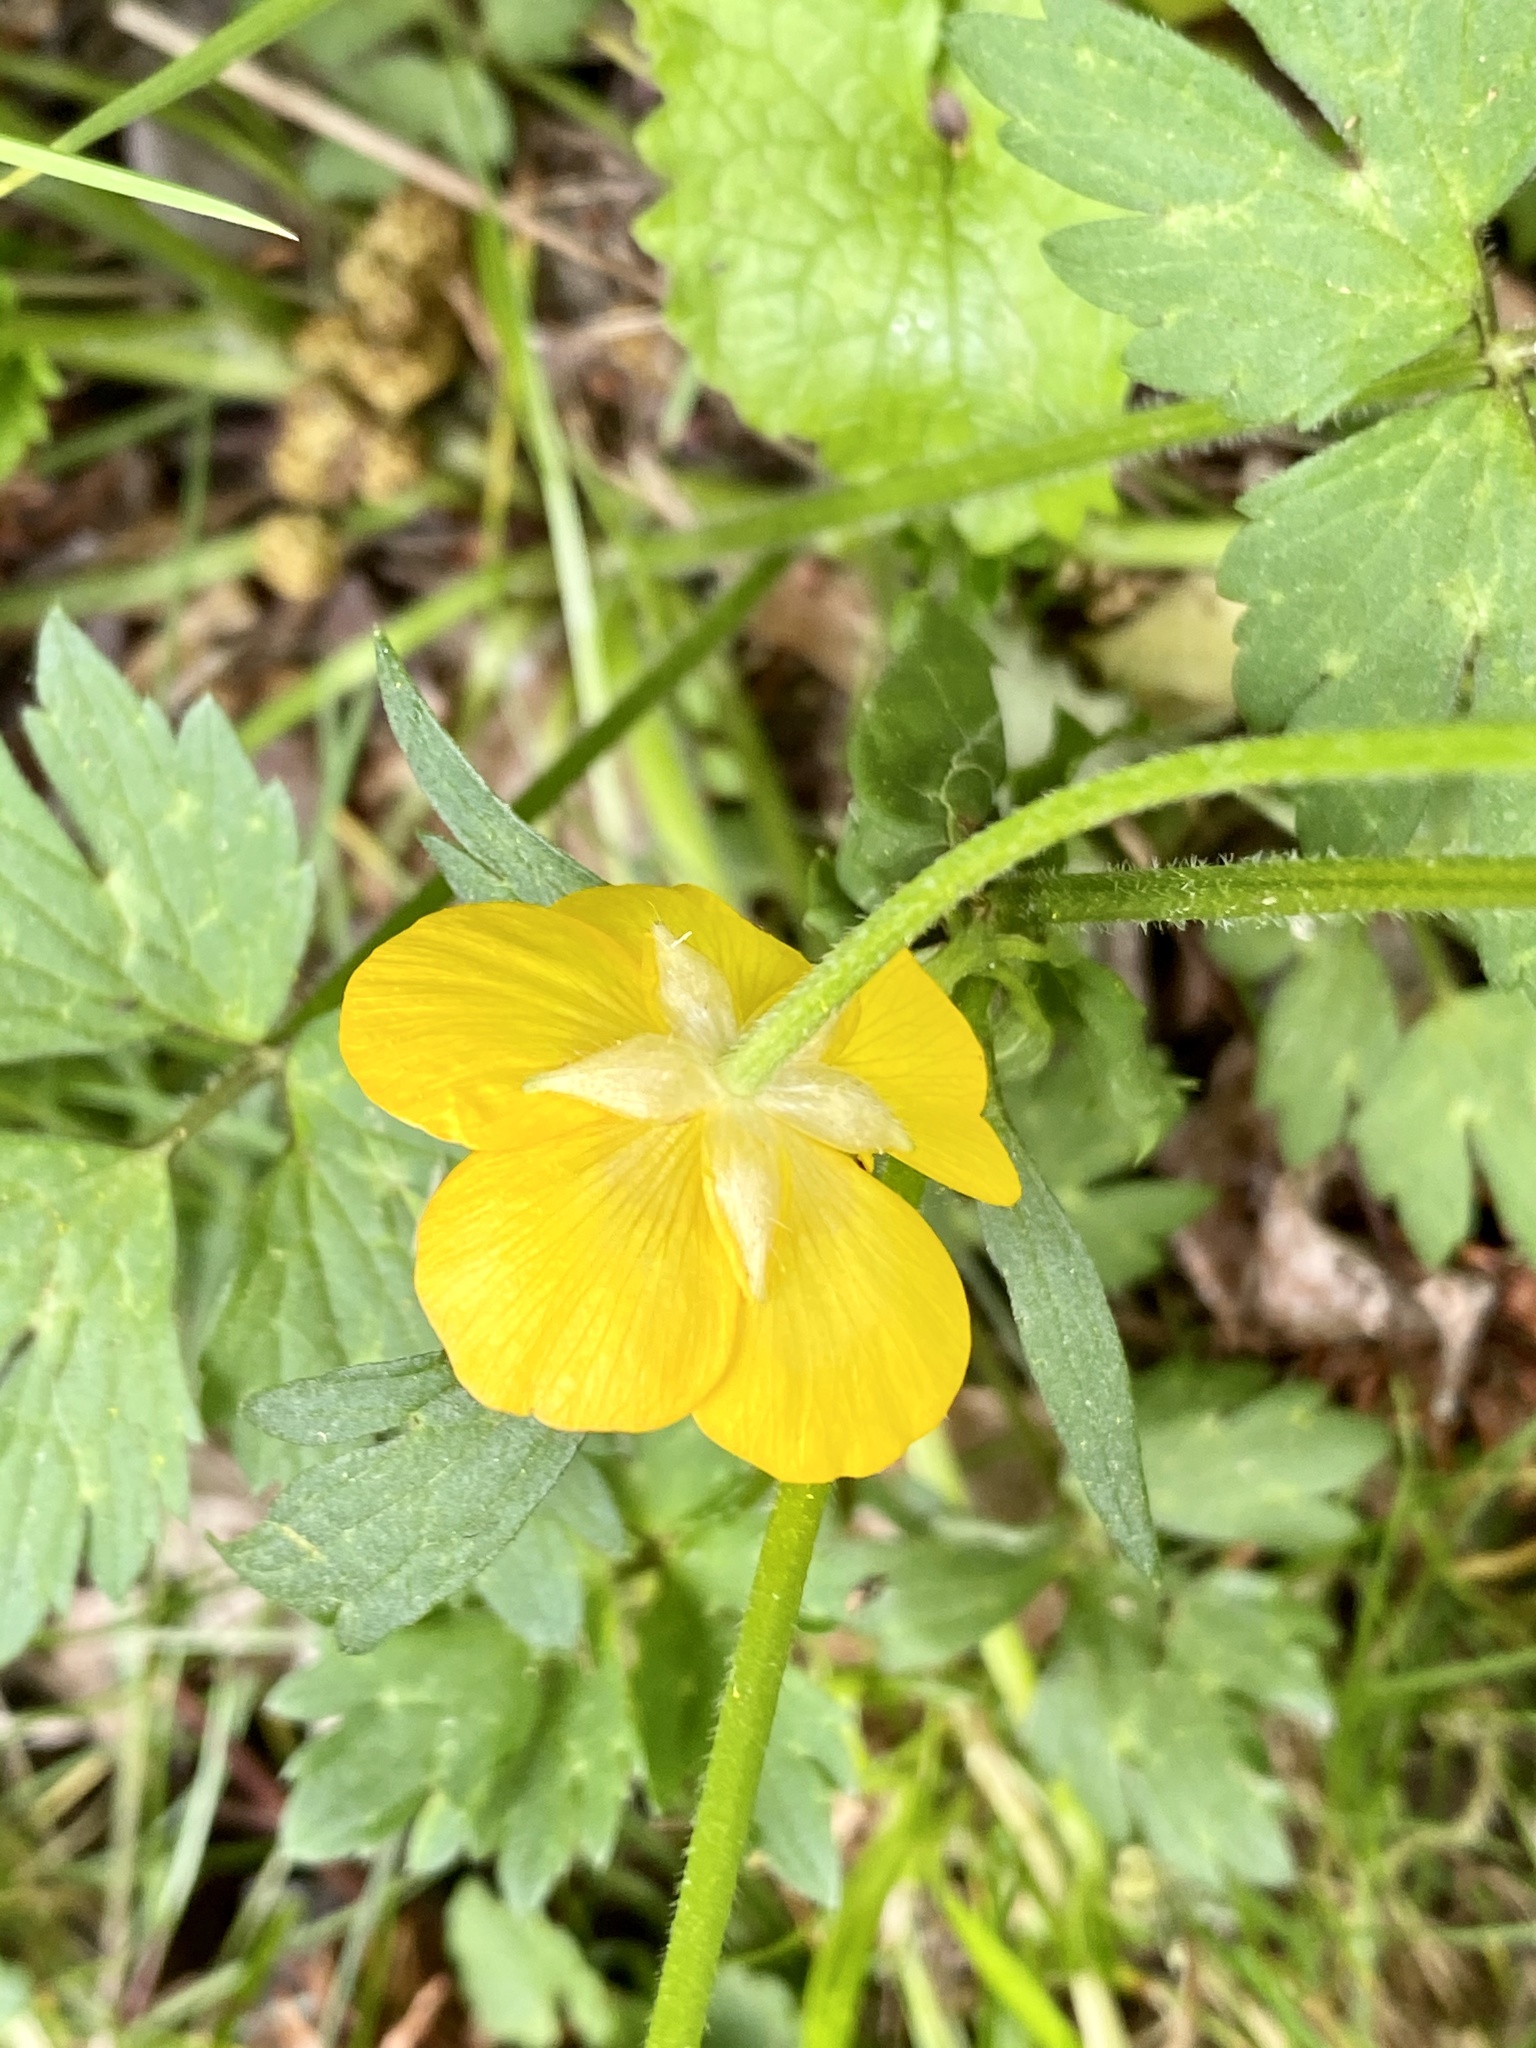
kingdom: Plantae
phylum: Tracheophyta
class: Magnoliopsida
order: Ranunculales
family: Ranunculaceae
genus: Ranunculus
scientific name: Ranunculus repens
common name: Creeping buttercup
